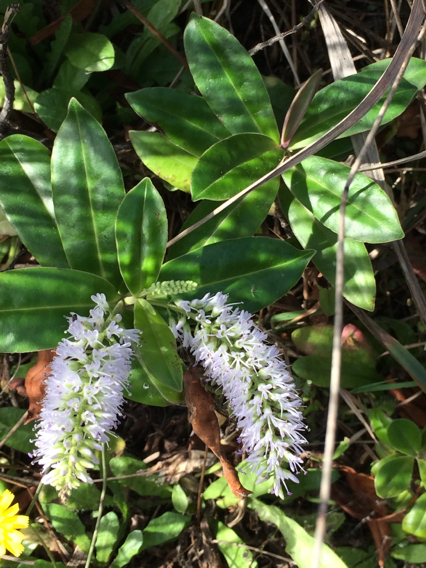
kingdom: Plantae
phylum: Tracheophyta
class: Magnoliopsida
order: Lamiales
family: Plantaginaceae
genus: Veronica
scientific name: Veronica stricta
